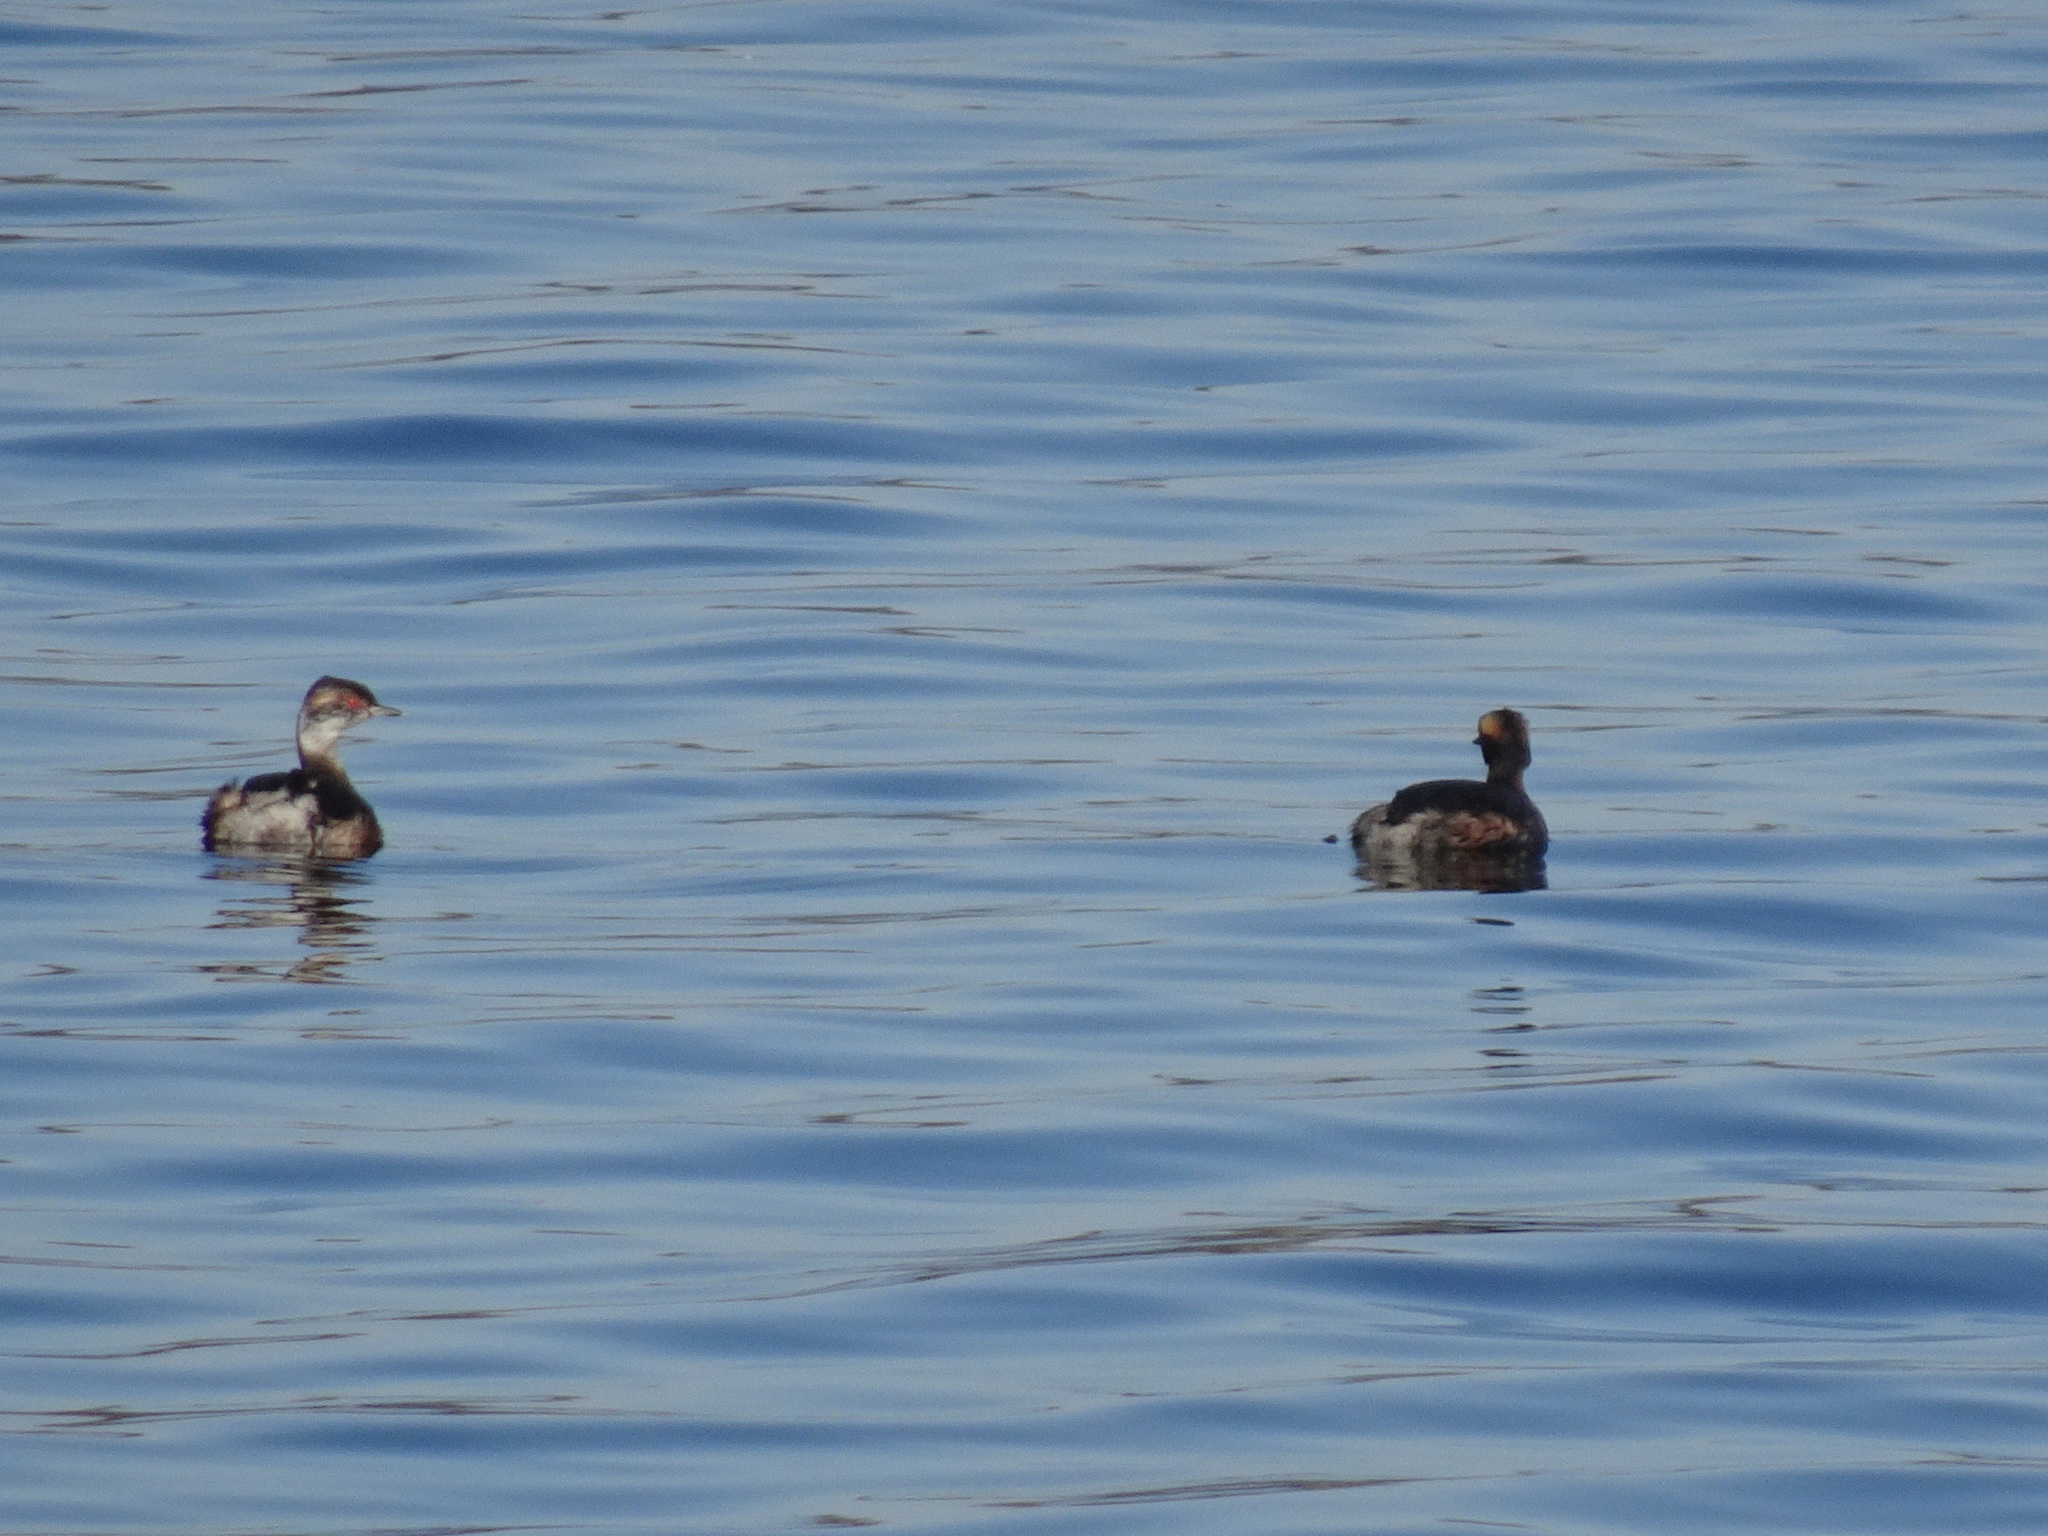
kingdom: Animalia
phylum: Chordata
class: Aves
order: Podicipediformes
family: Podicipedidae
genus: Podiceps
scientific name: Podiceps auritus
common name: Horned grebe
